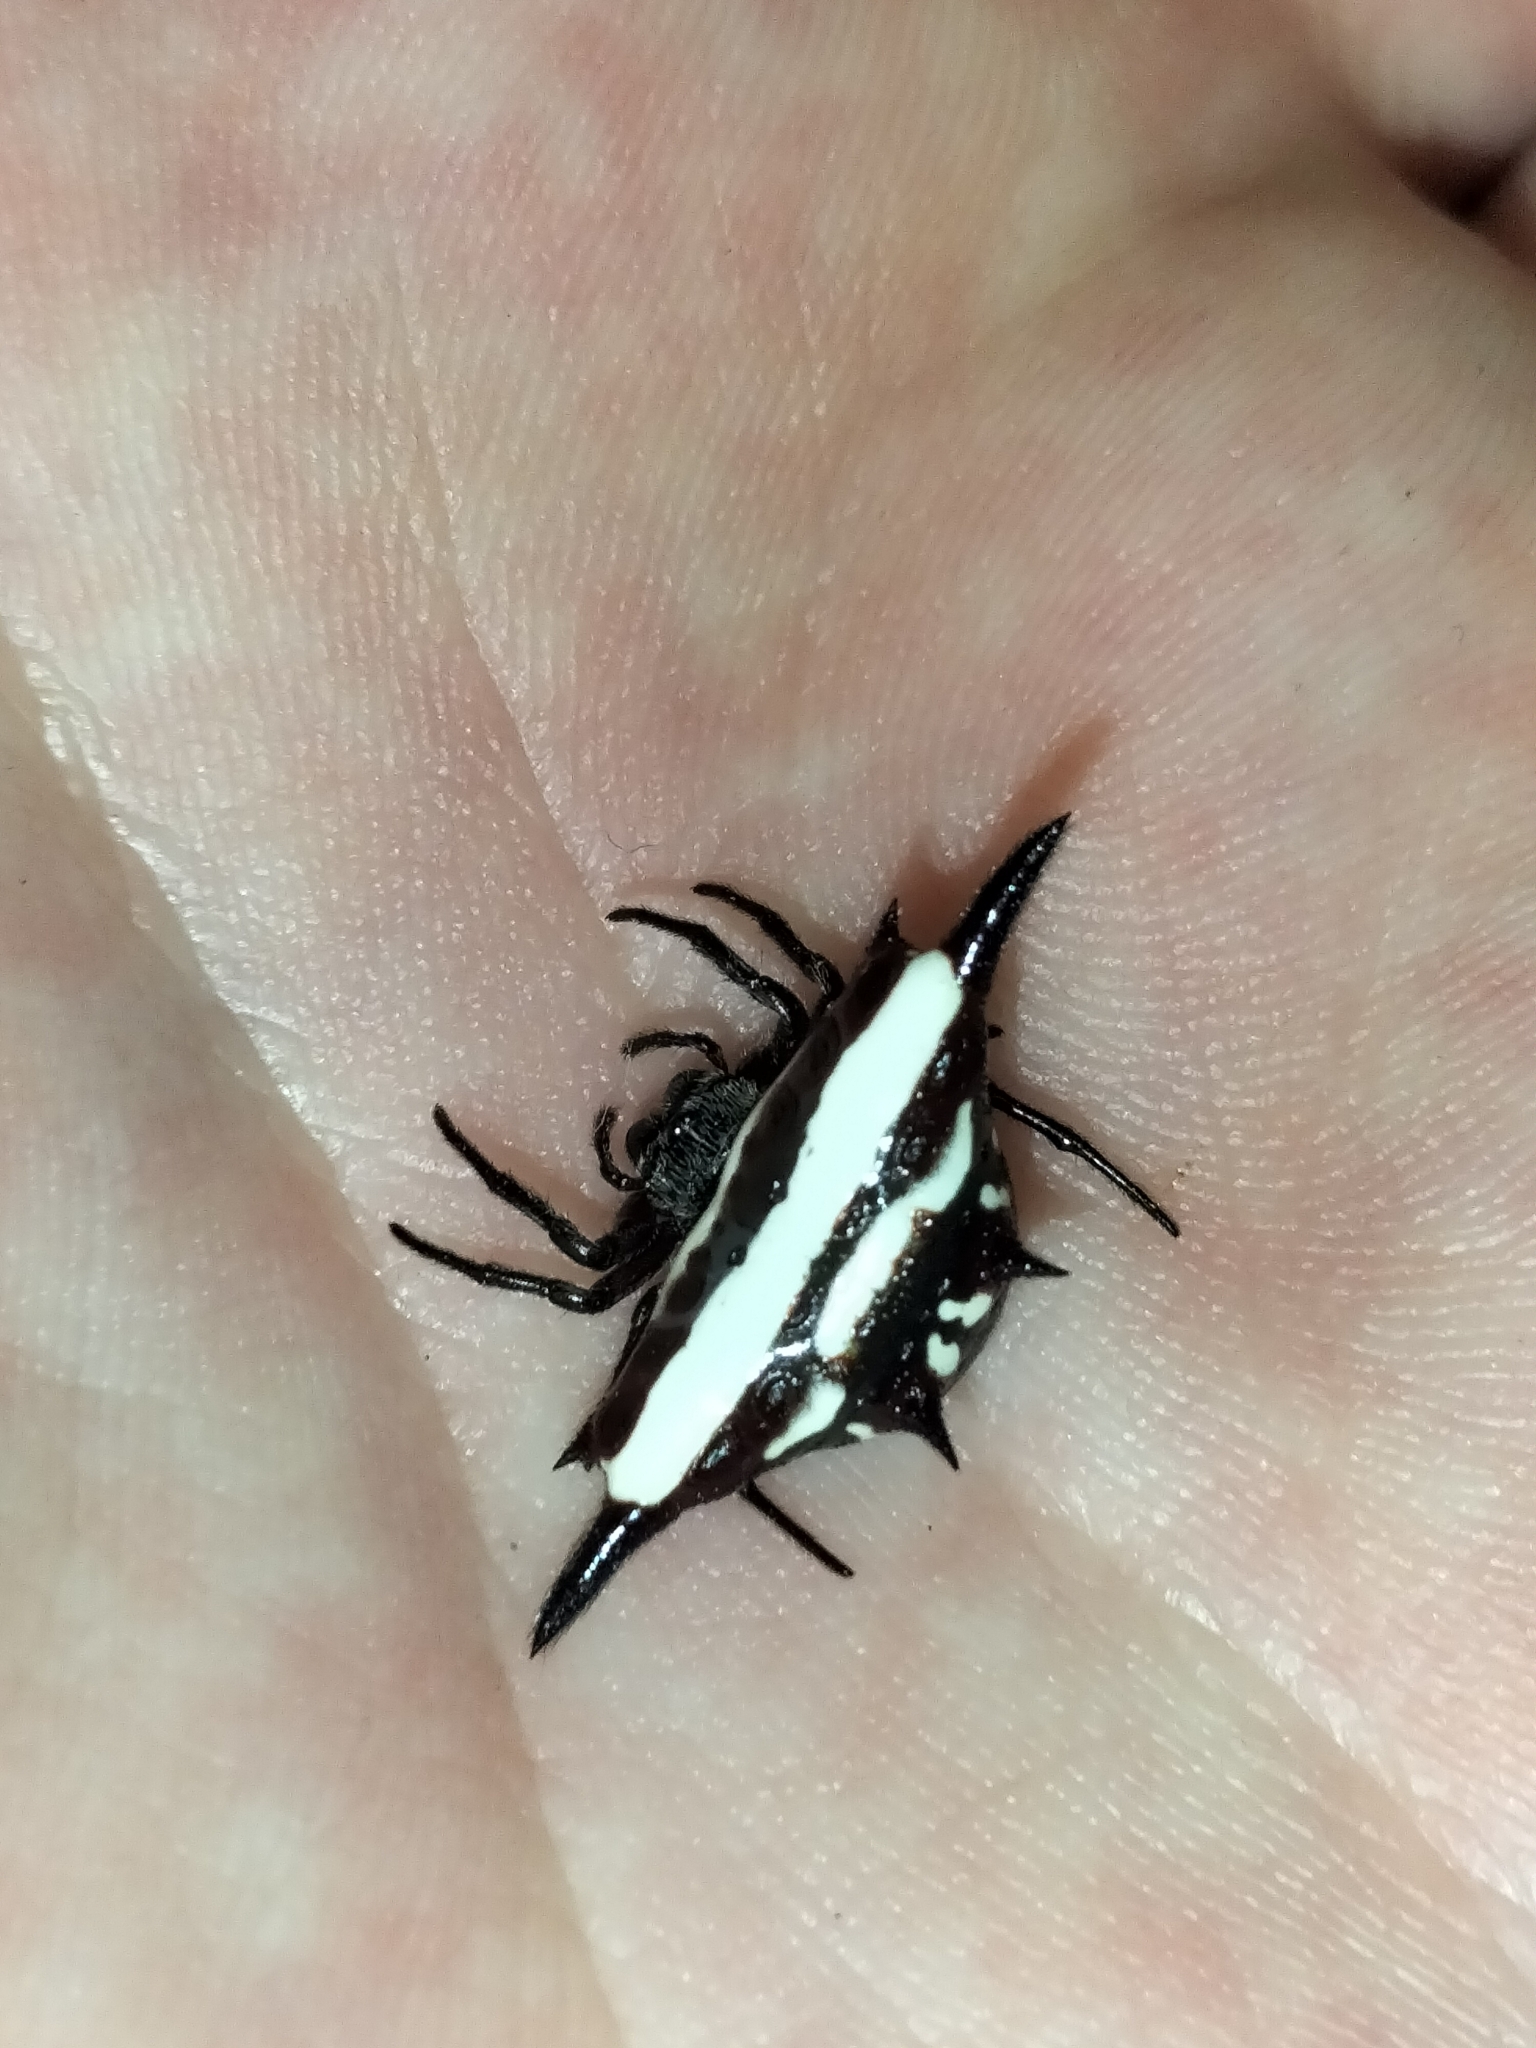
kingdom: Animalia
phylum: Arthropoda
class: Arachnida
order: Araneae
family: Araneidae
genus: Gasteracantha
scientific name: Gasteracantha fornicata
